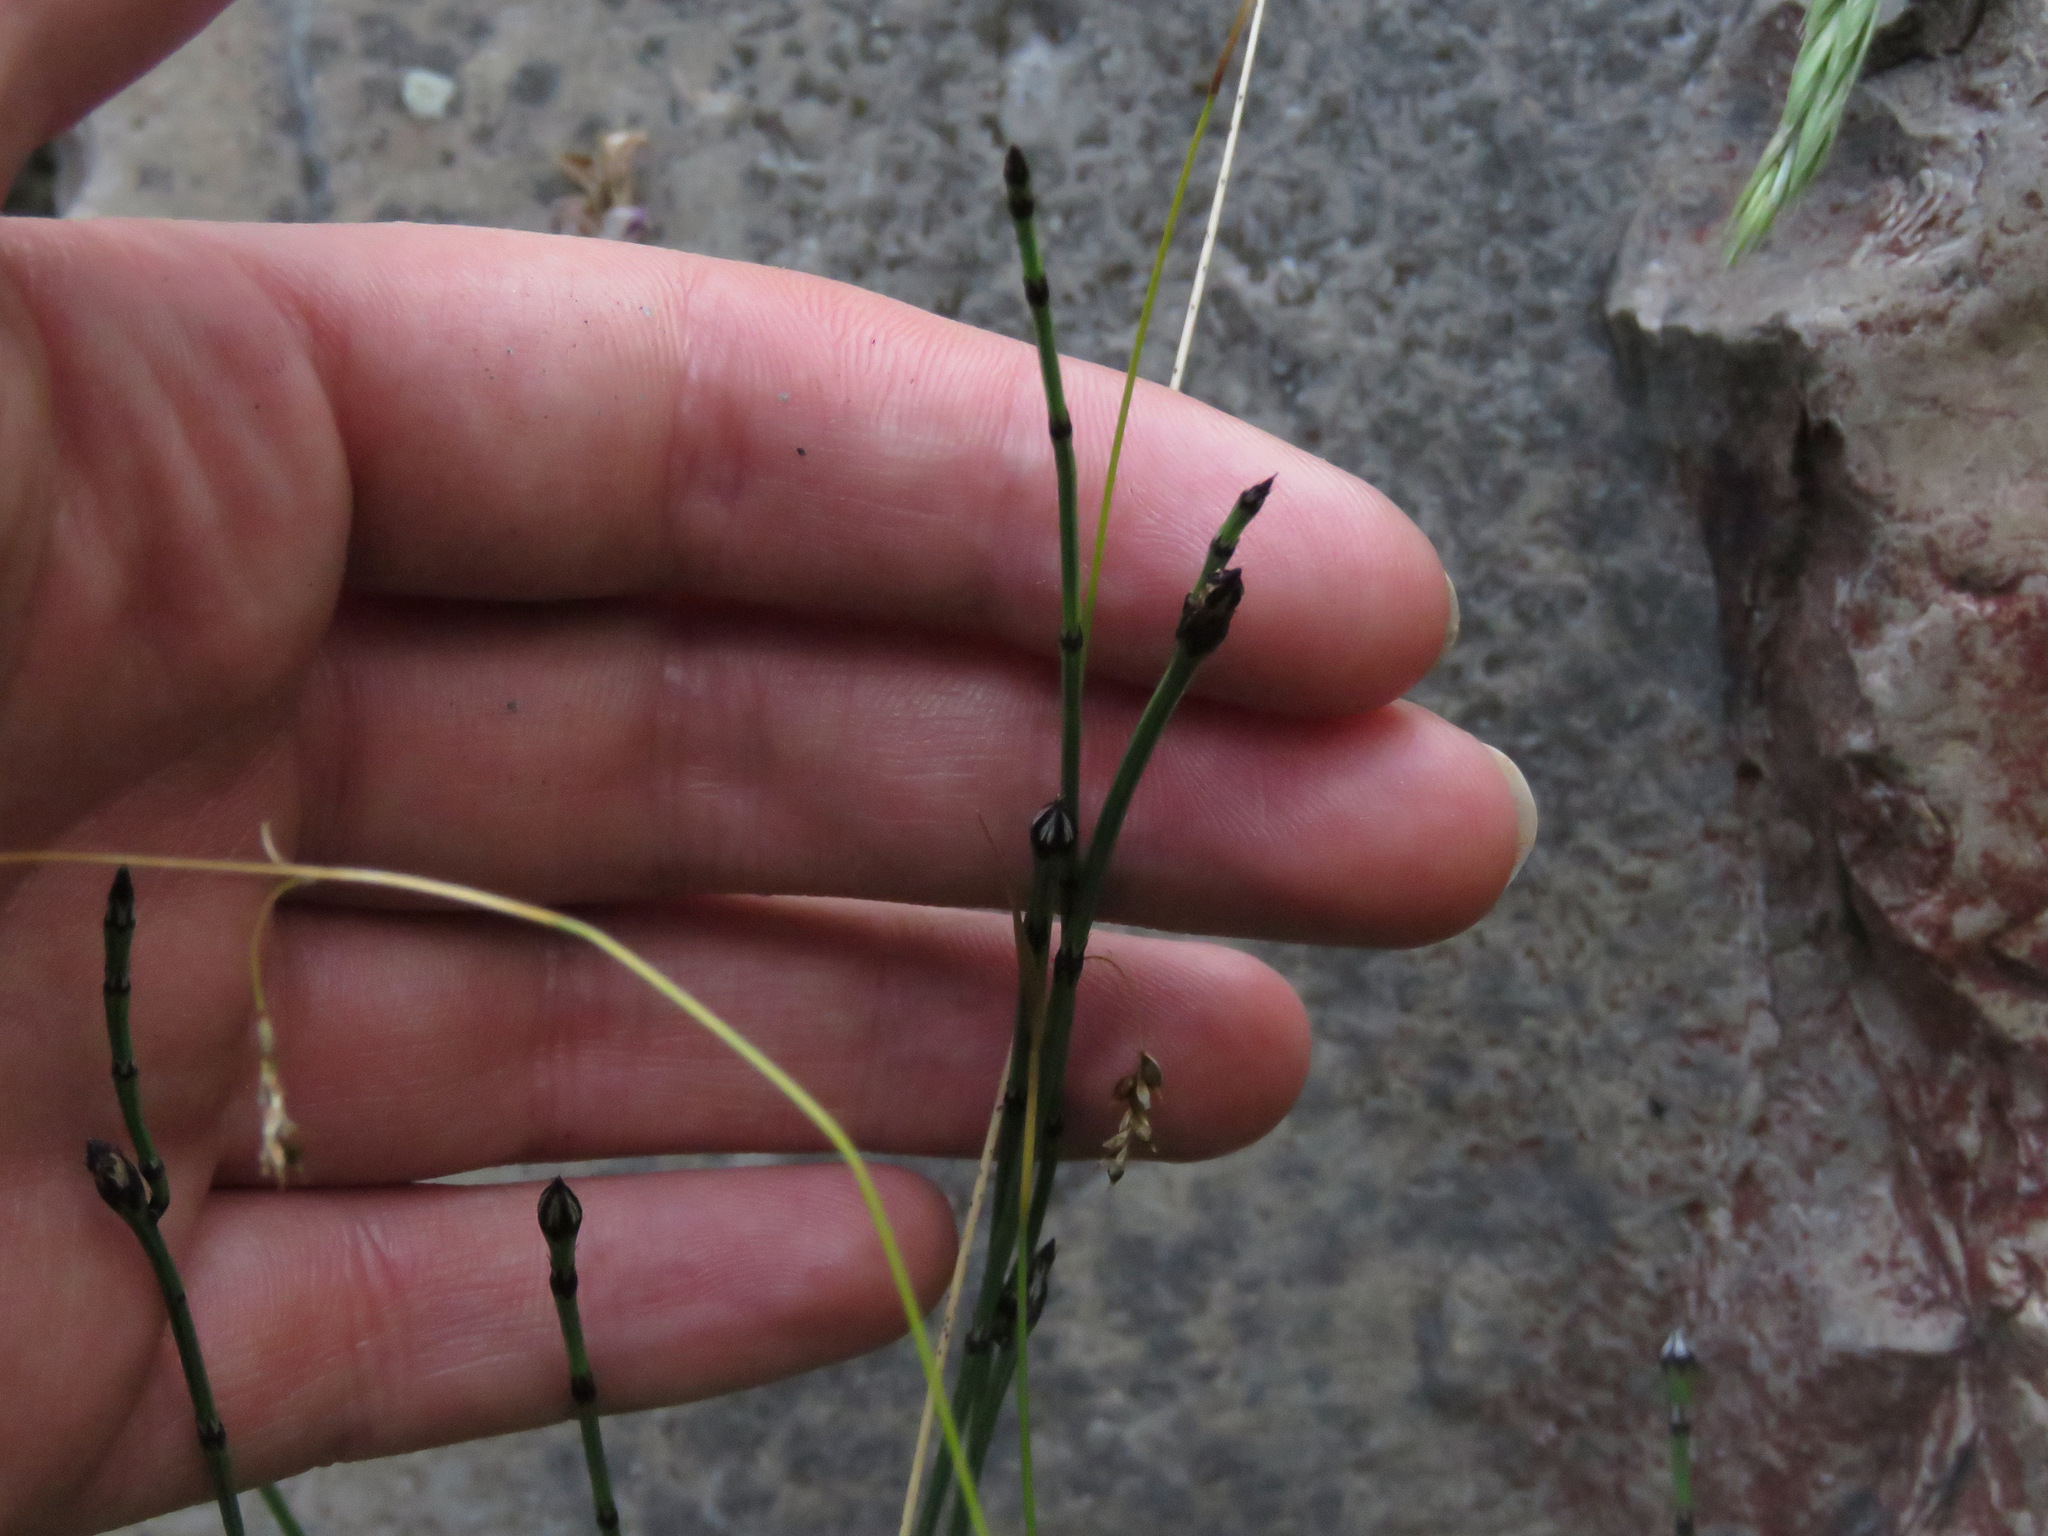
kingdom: Plantae
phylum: Tracheophyta
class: Polypodiopsida
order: Equisetales
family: Equisetaceae
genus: Equisetum
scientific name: Equisetum scirpoides
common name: Delicate horsetail
